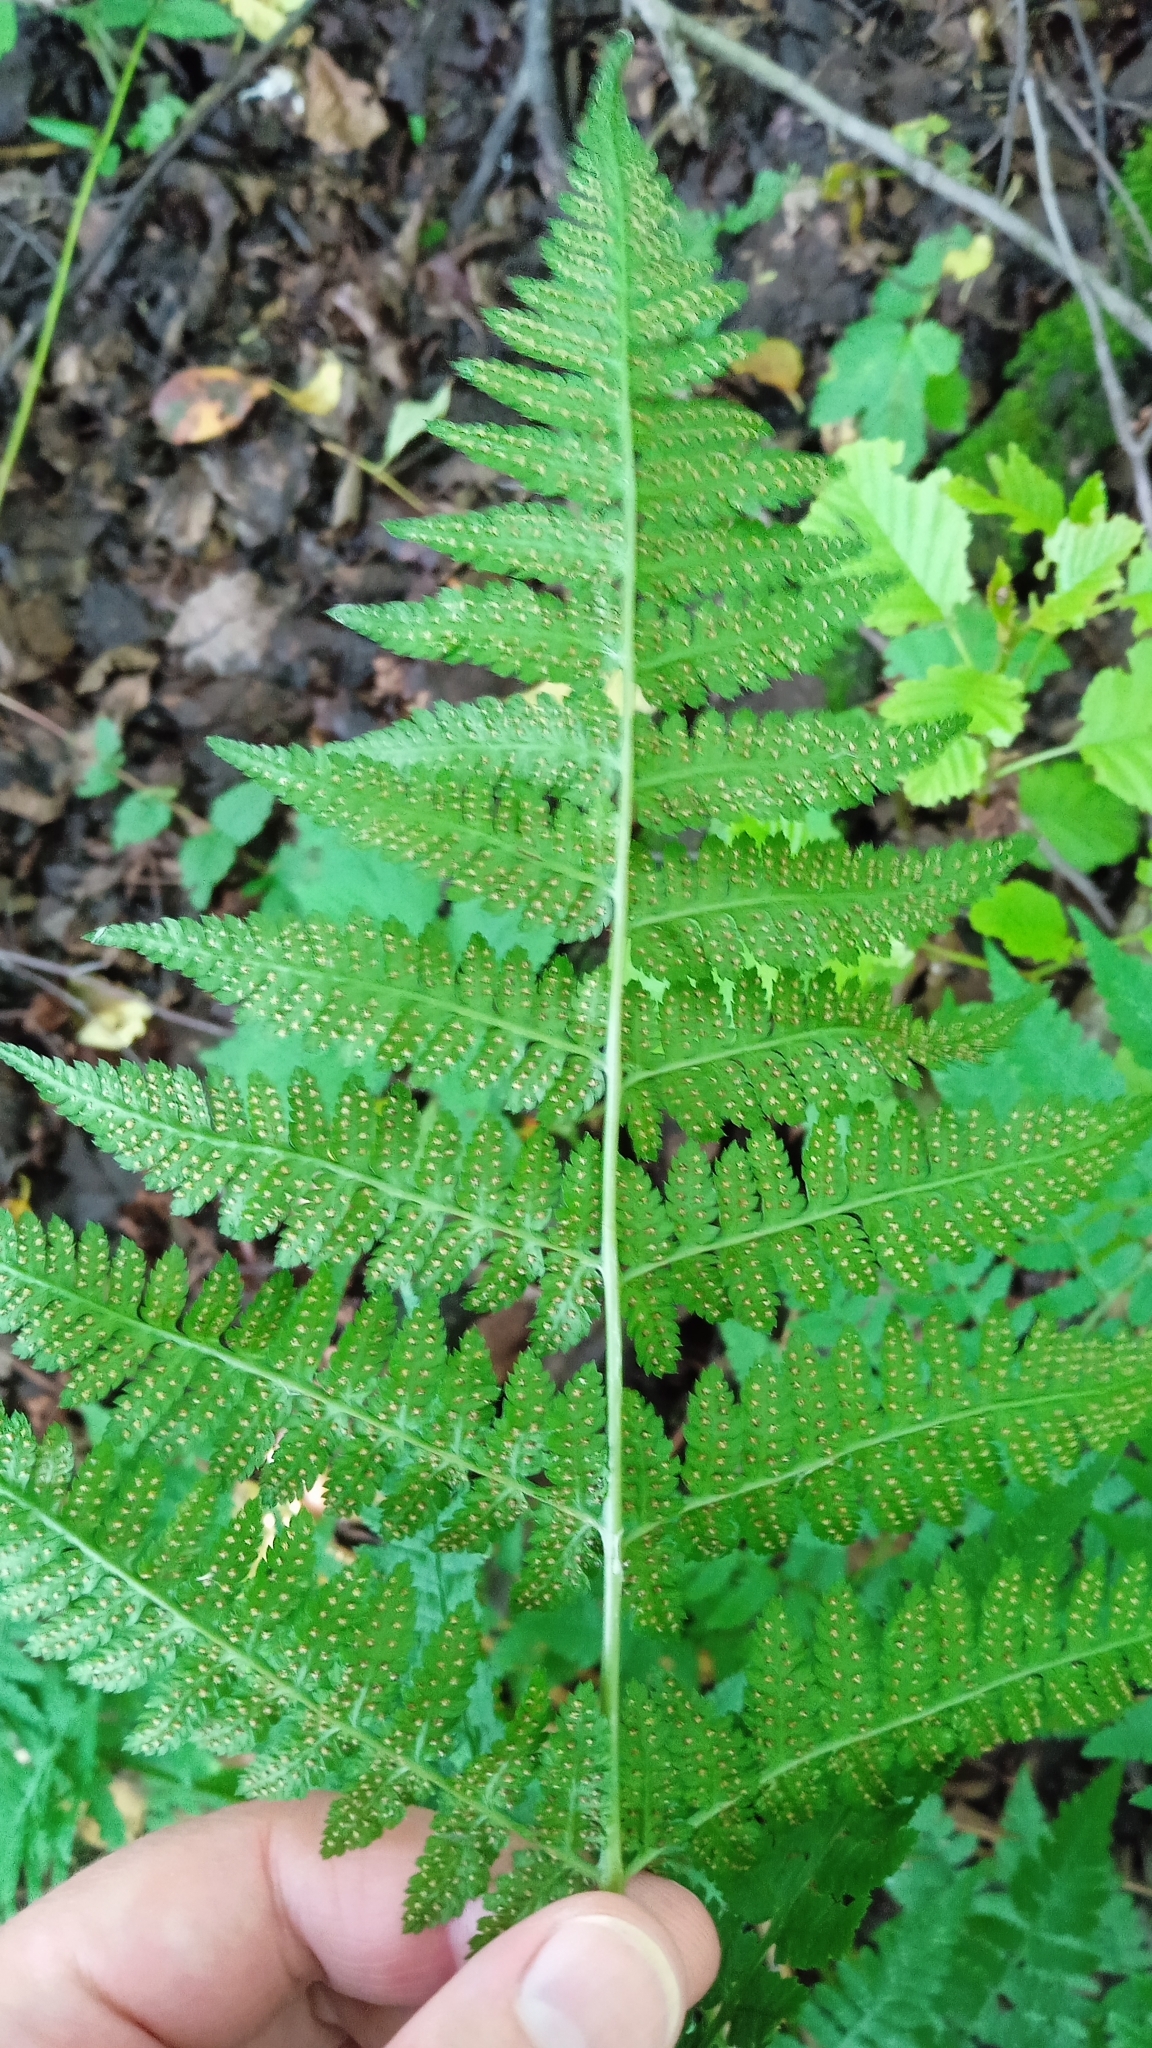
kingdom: Plantae
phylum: Tracheophyta
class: Polypodiopsida
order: Polypodiales
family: Dryopteridaceae
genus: Dryopteris
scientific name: Dryopteris carthusiana
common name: Narrow buckler-fern
